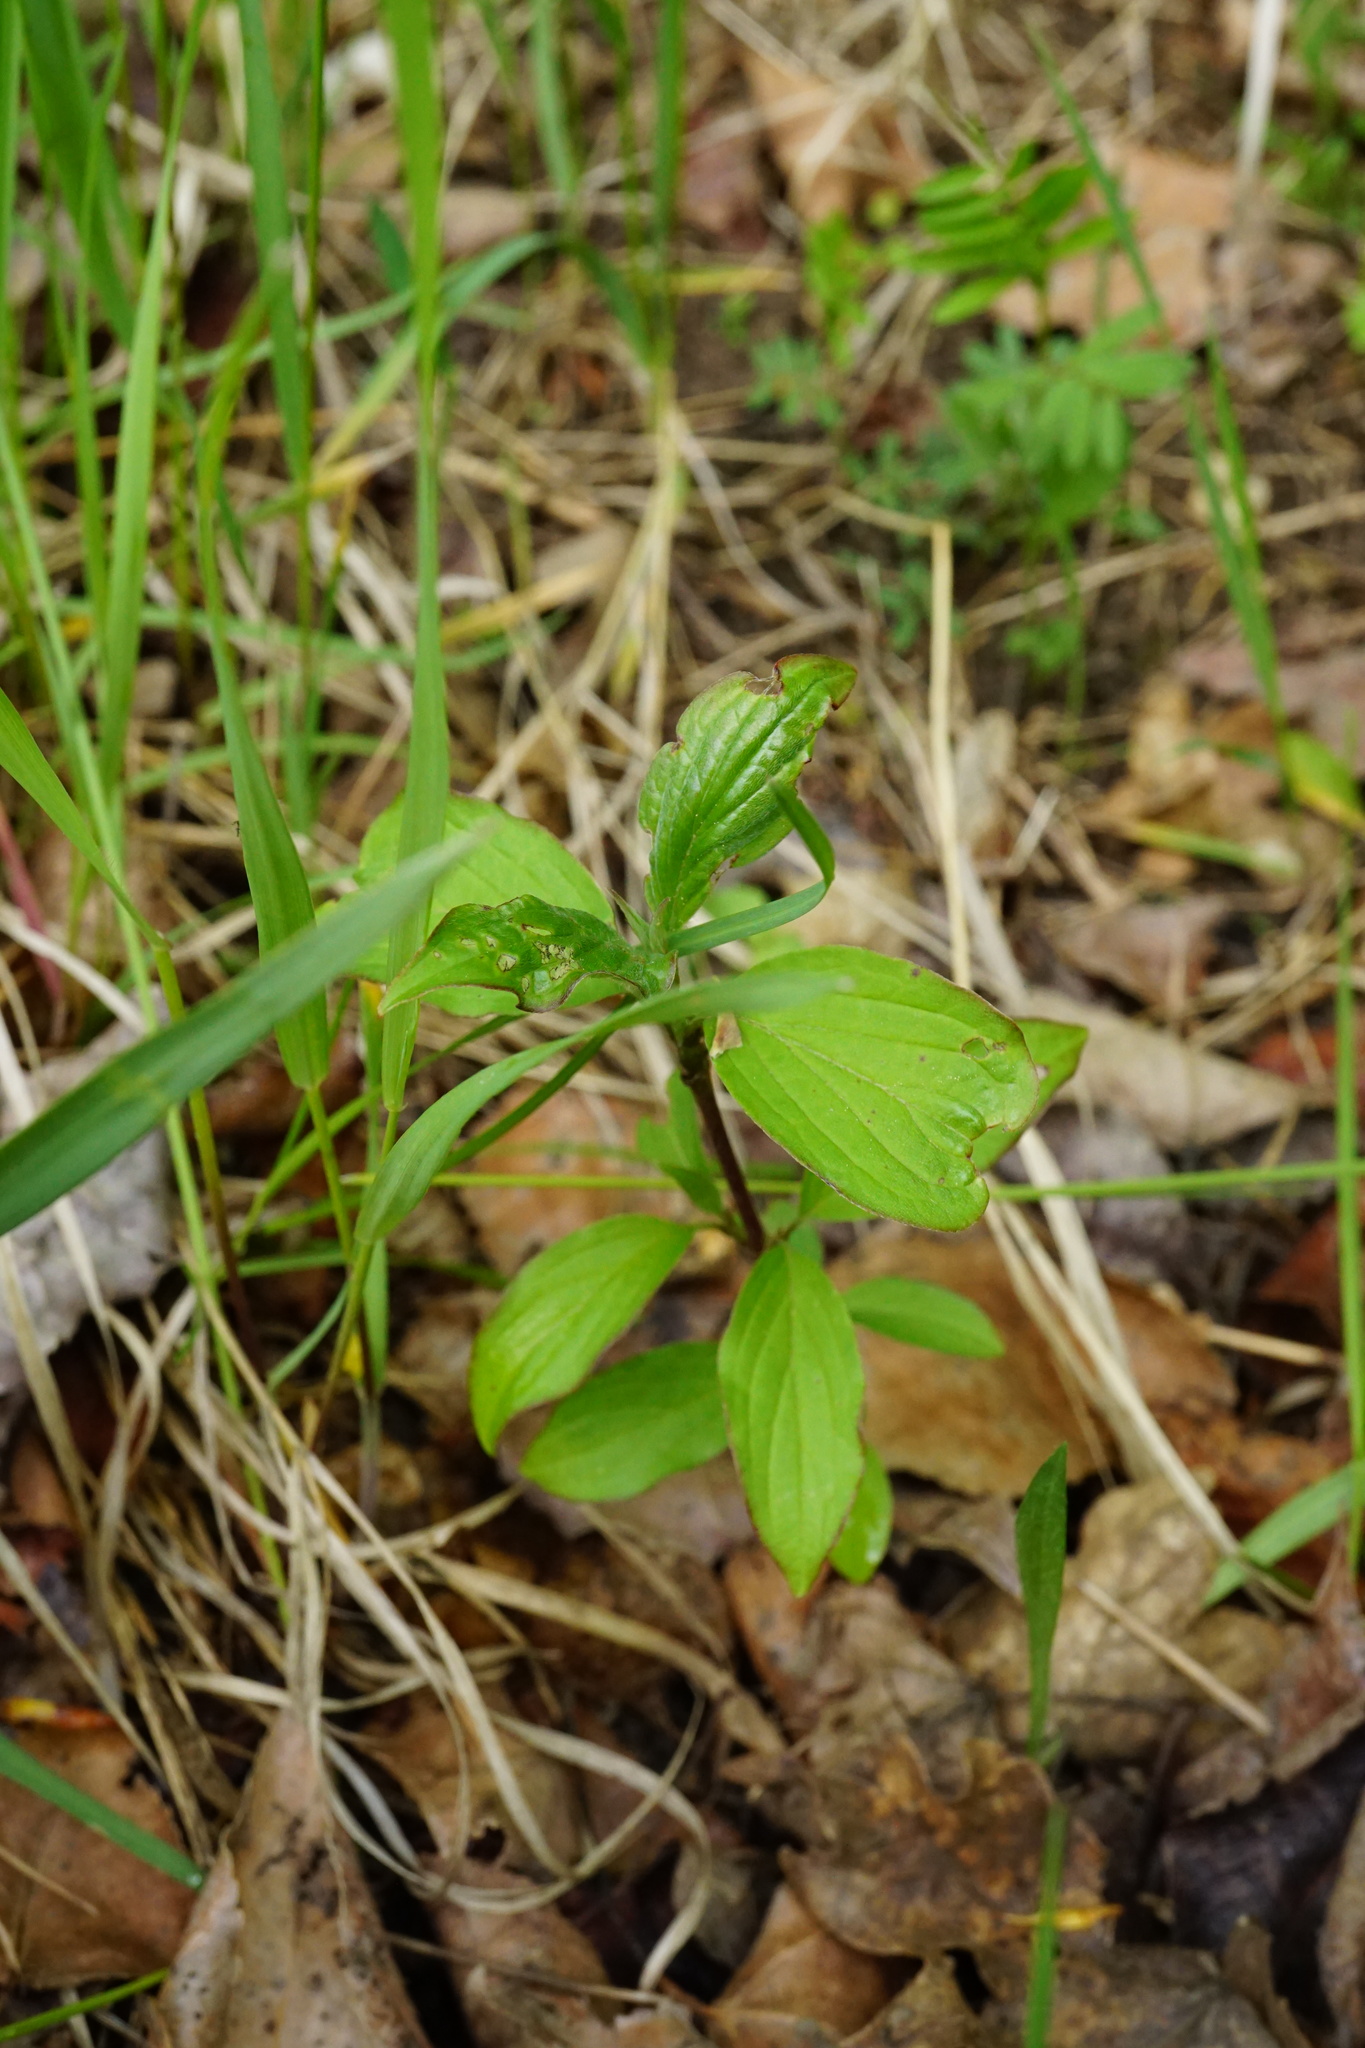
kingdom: Plantae
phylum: Tracheophyta
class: Magnoliopsida
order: Cornales
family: Cornaceae
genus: Cornus
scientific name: Cornus sanguinea
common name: Dogwood
